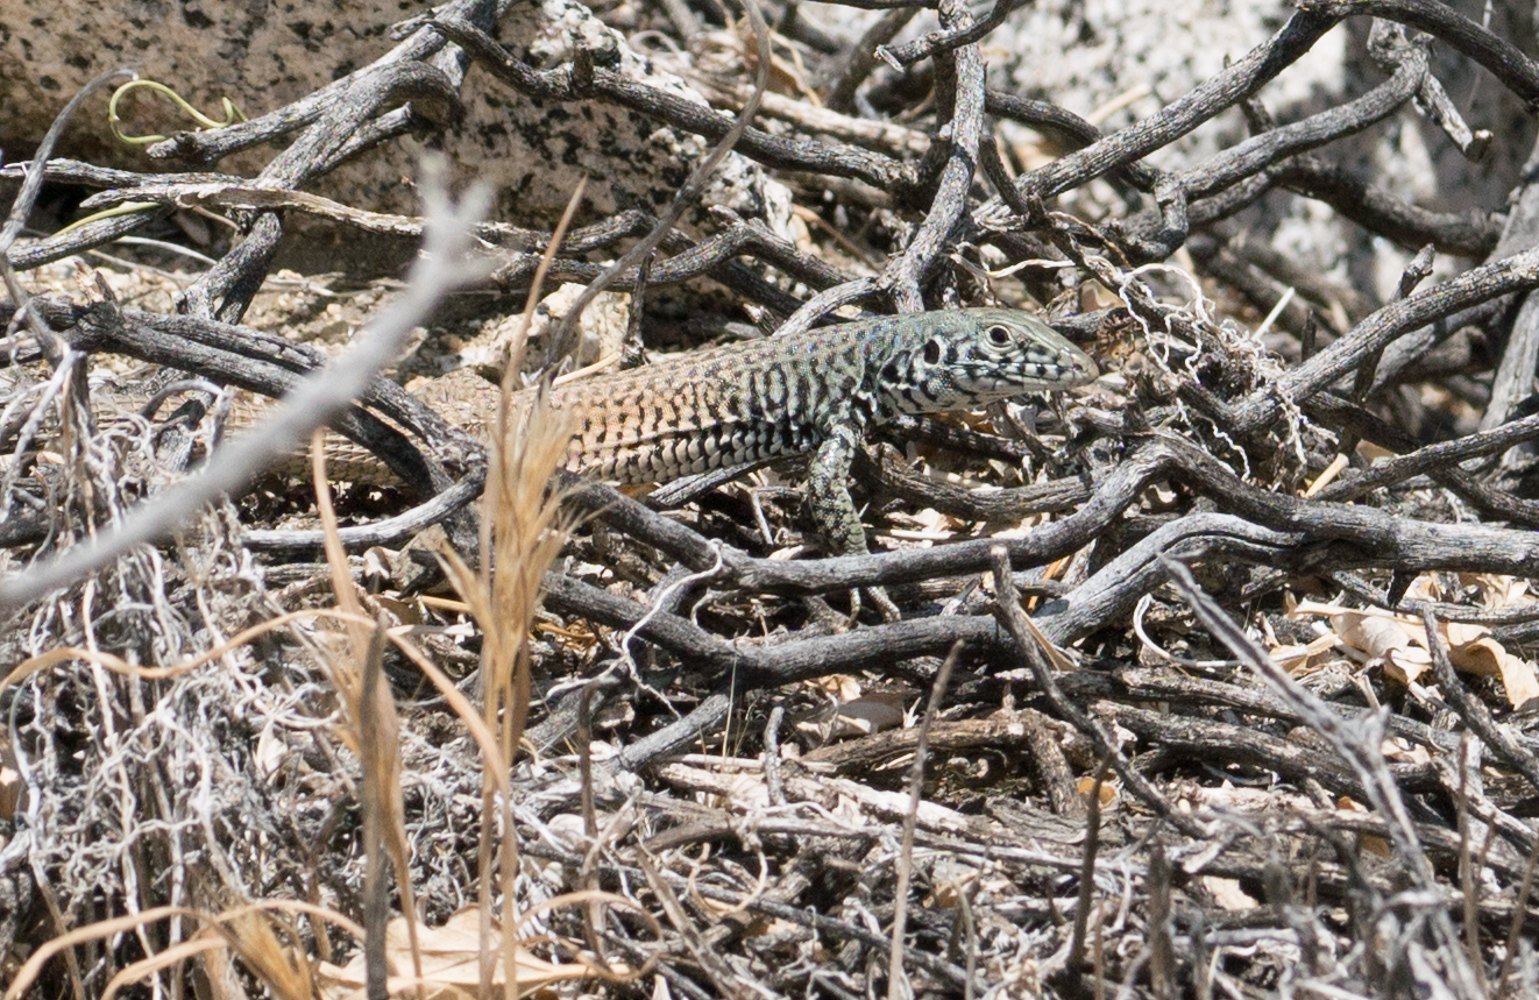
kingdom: Animalia
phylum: Chordata
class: Squamata
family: Teiidae
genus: Aspidoscelis
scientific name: Aspidoscelis tigris
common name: Tiger whiptail
